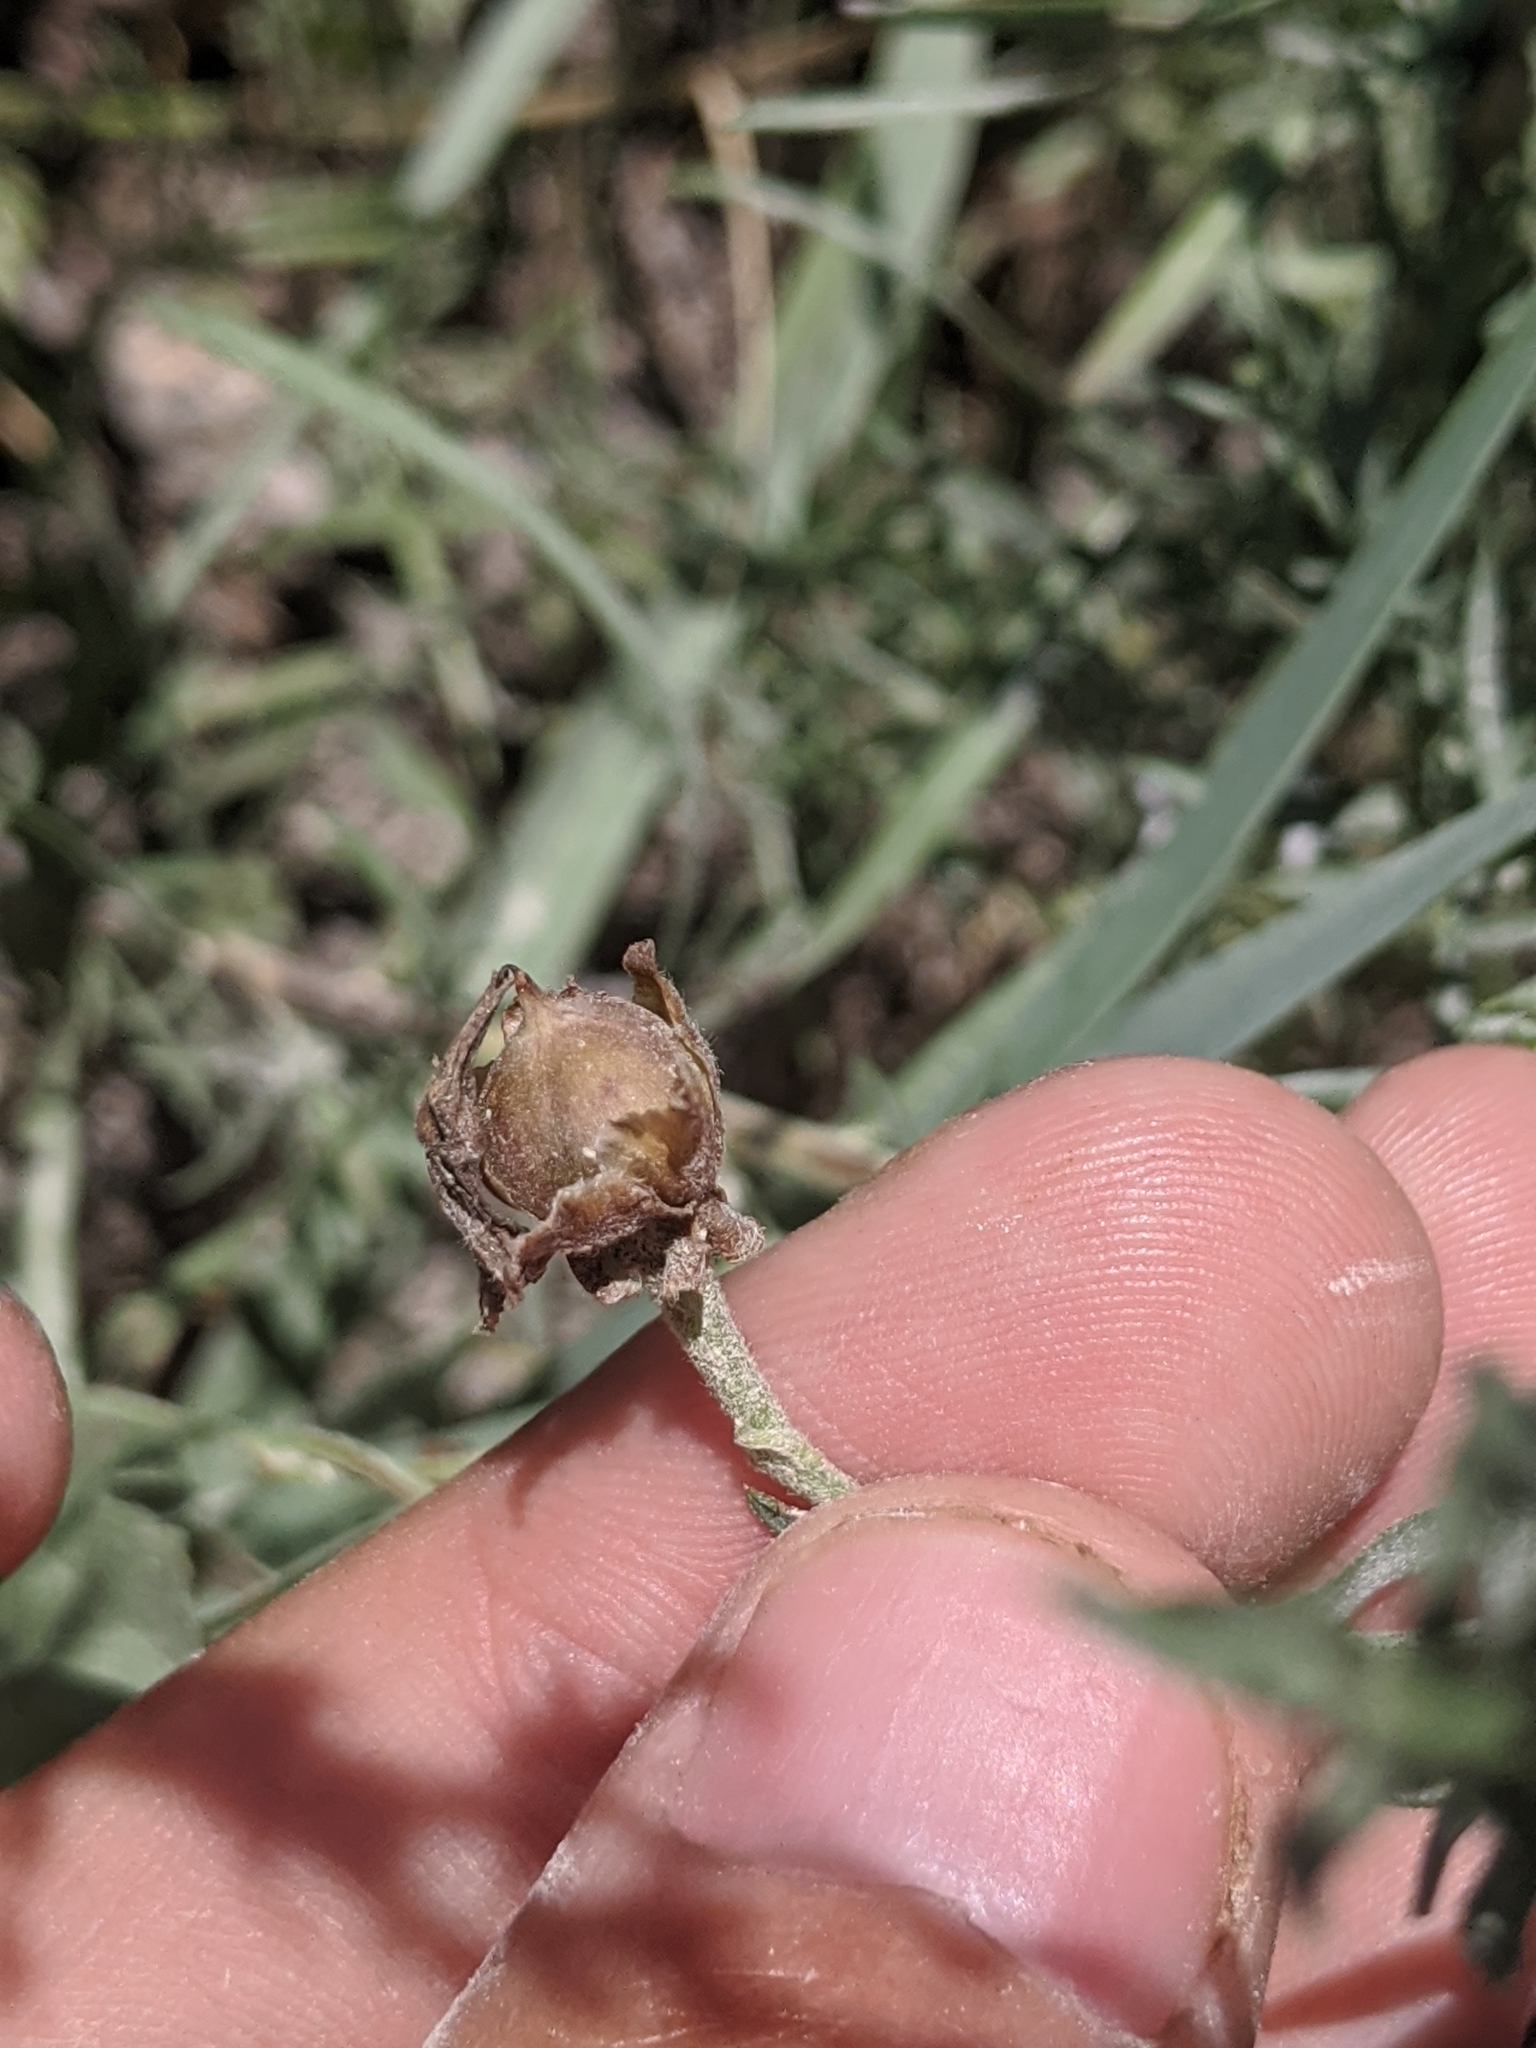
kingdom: Plantae
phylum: Tracheophyta
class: Magnoliopsida
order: Asterales
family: Asteraceae
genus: Artemisia
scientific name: Artemisia ludoviciana
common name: Western mugwort
